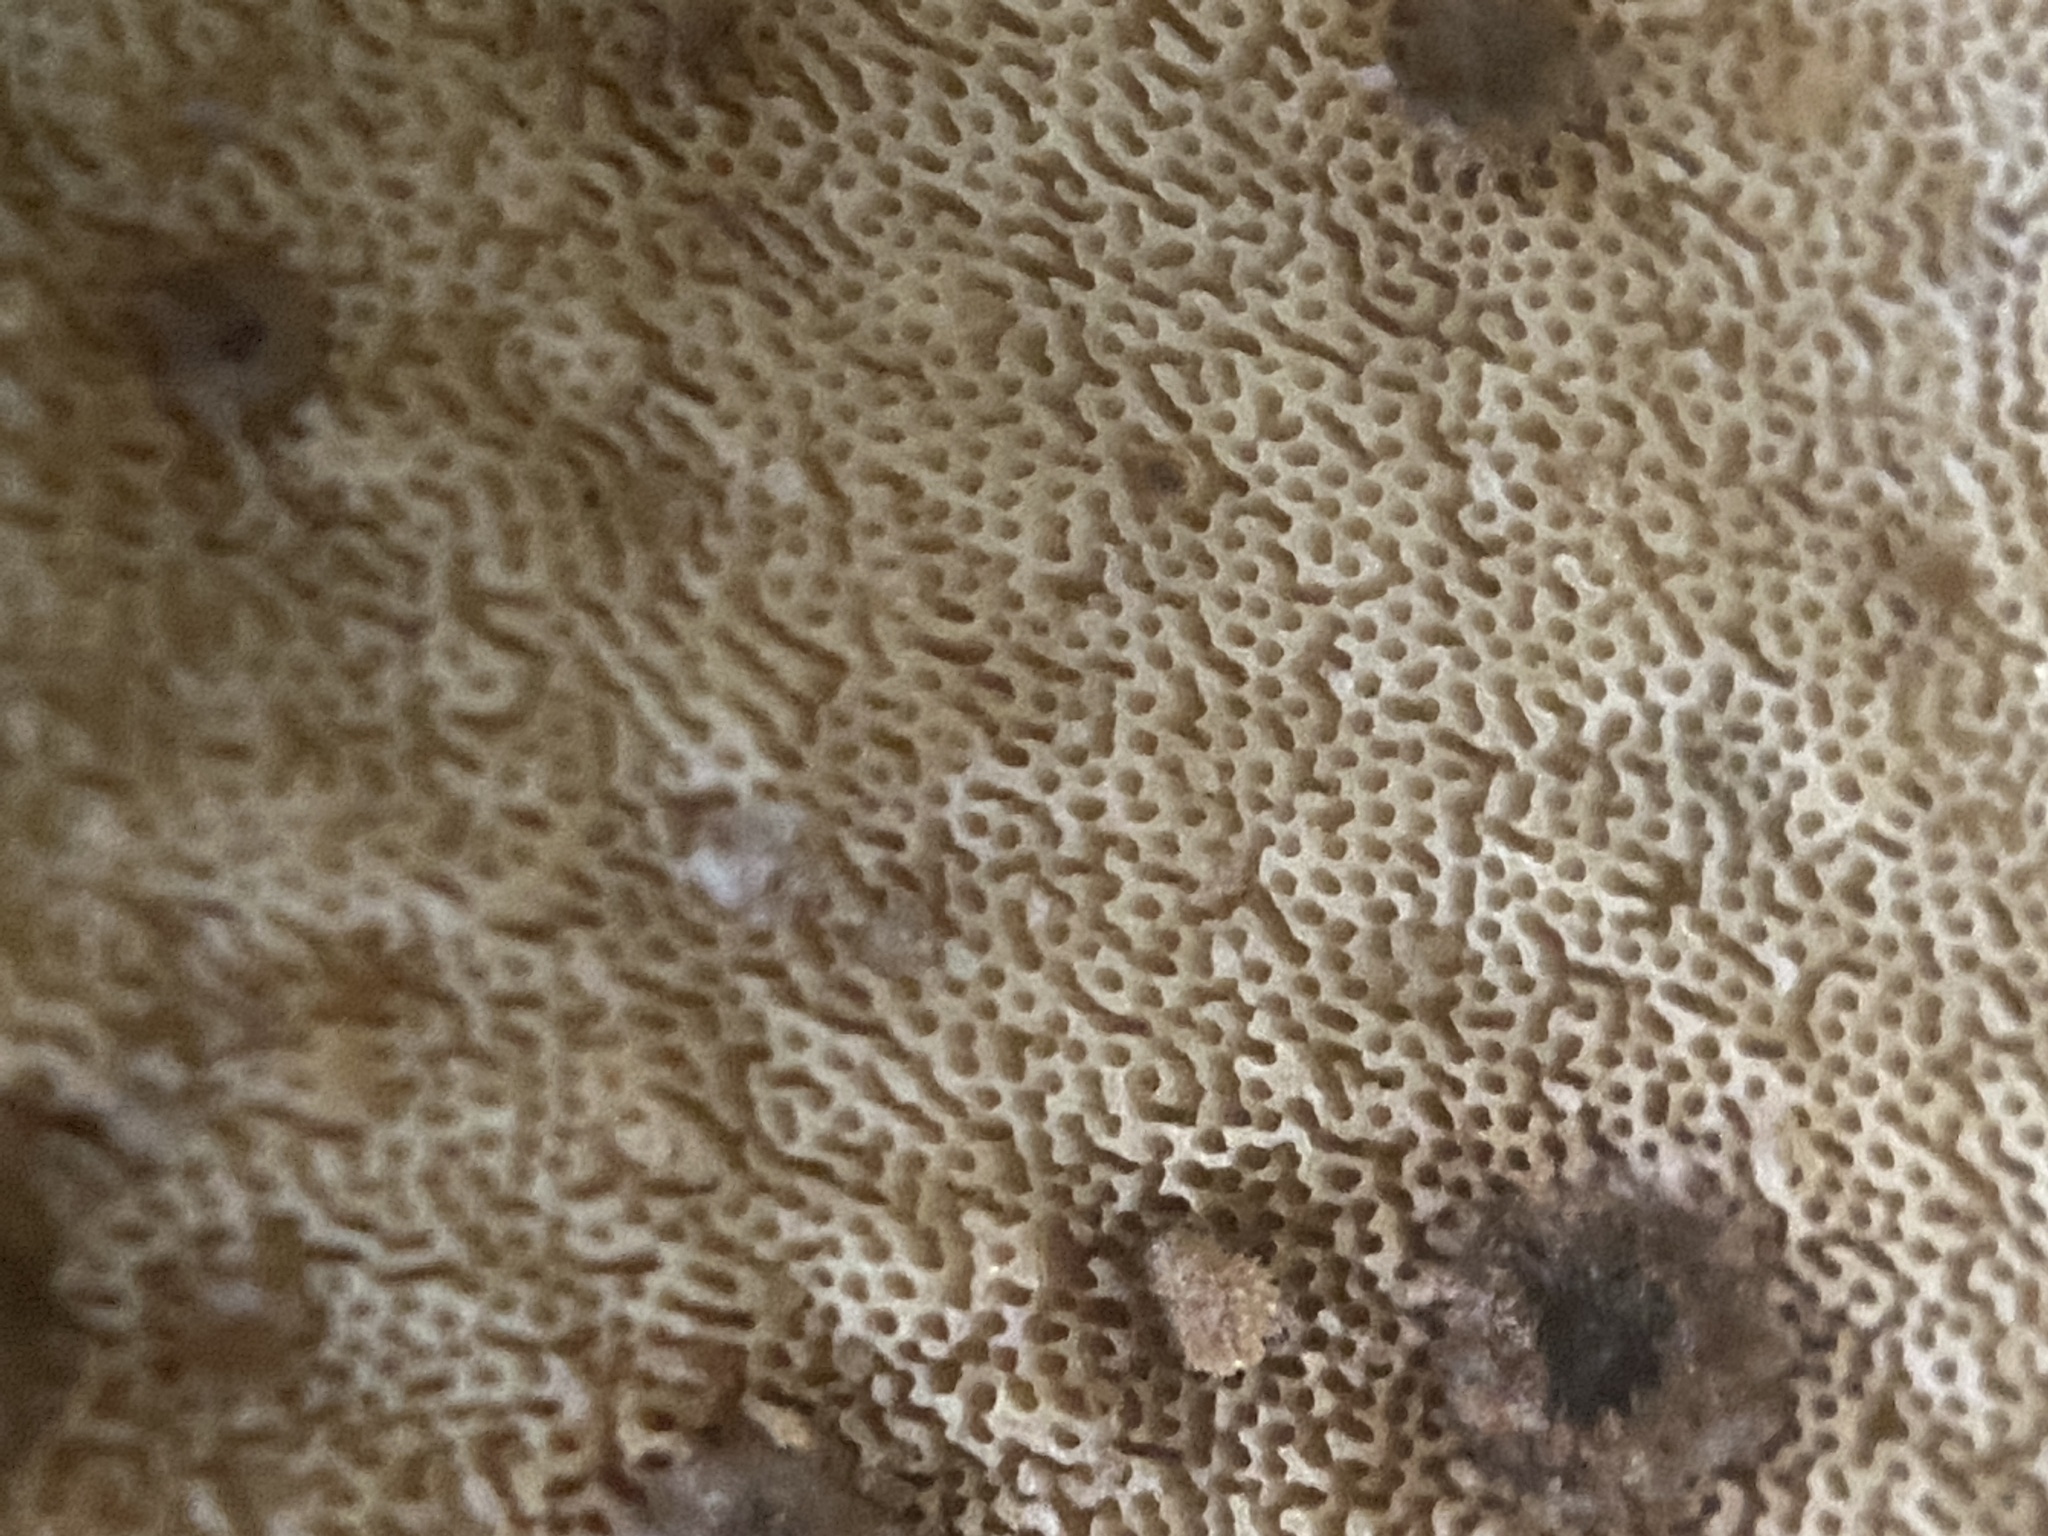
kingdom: Fungi
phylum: Basidiomycota
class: Agaricomycetes
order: Polyporales
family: Polyporaceae
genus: Picipes
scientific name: Picipes badius
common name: Bay polypore
